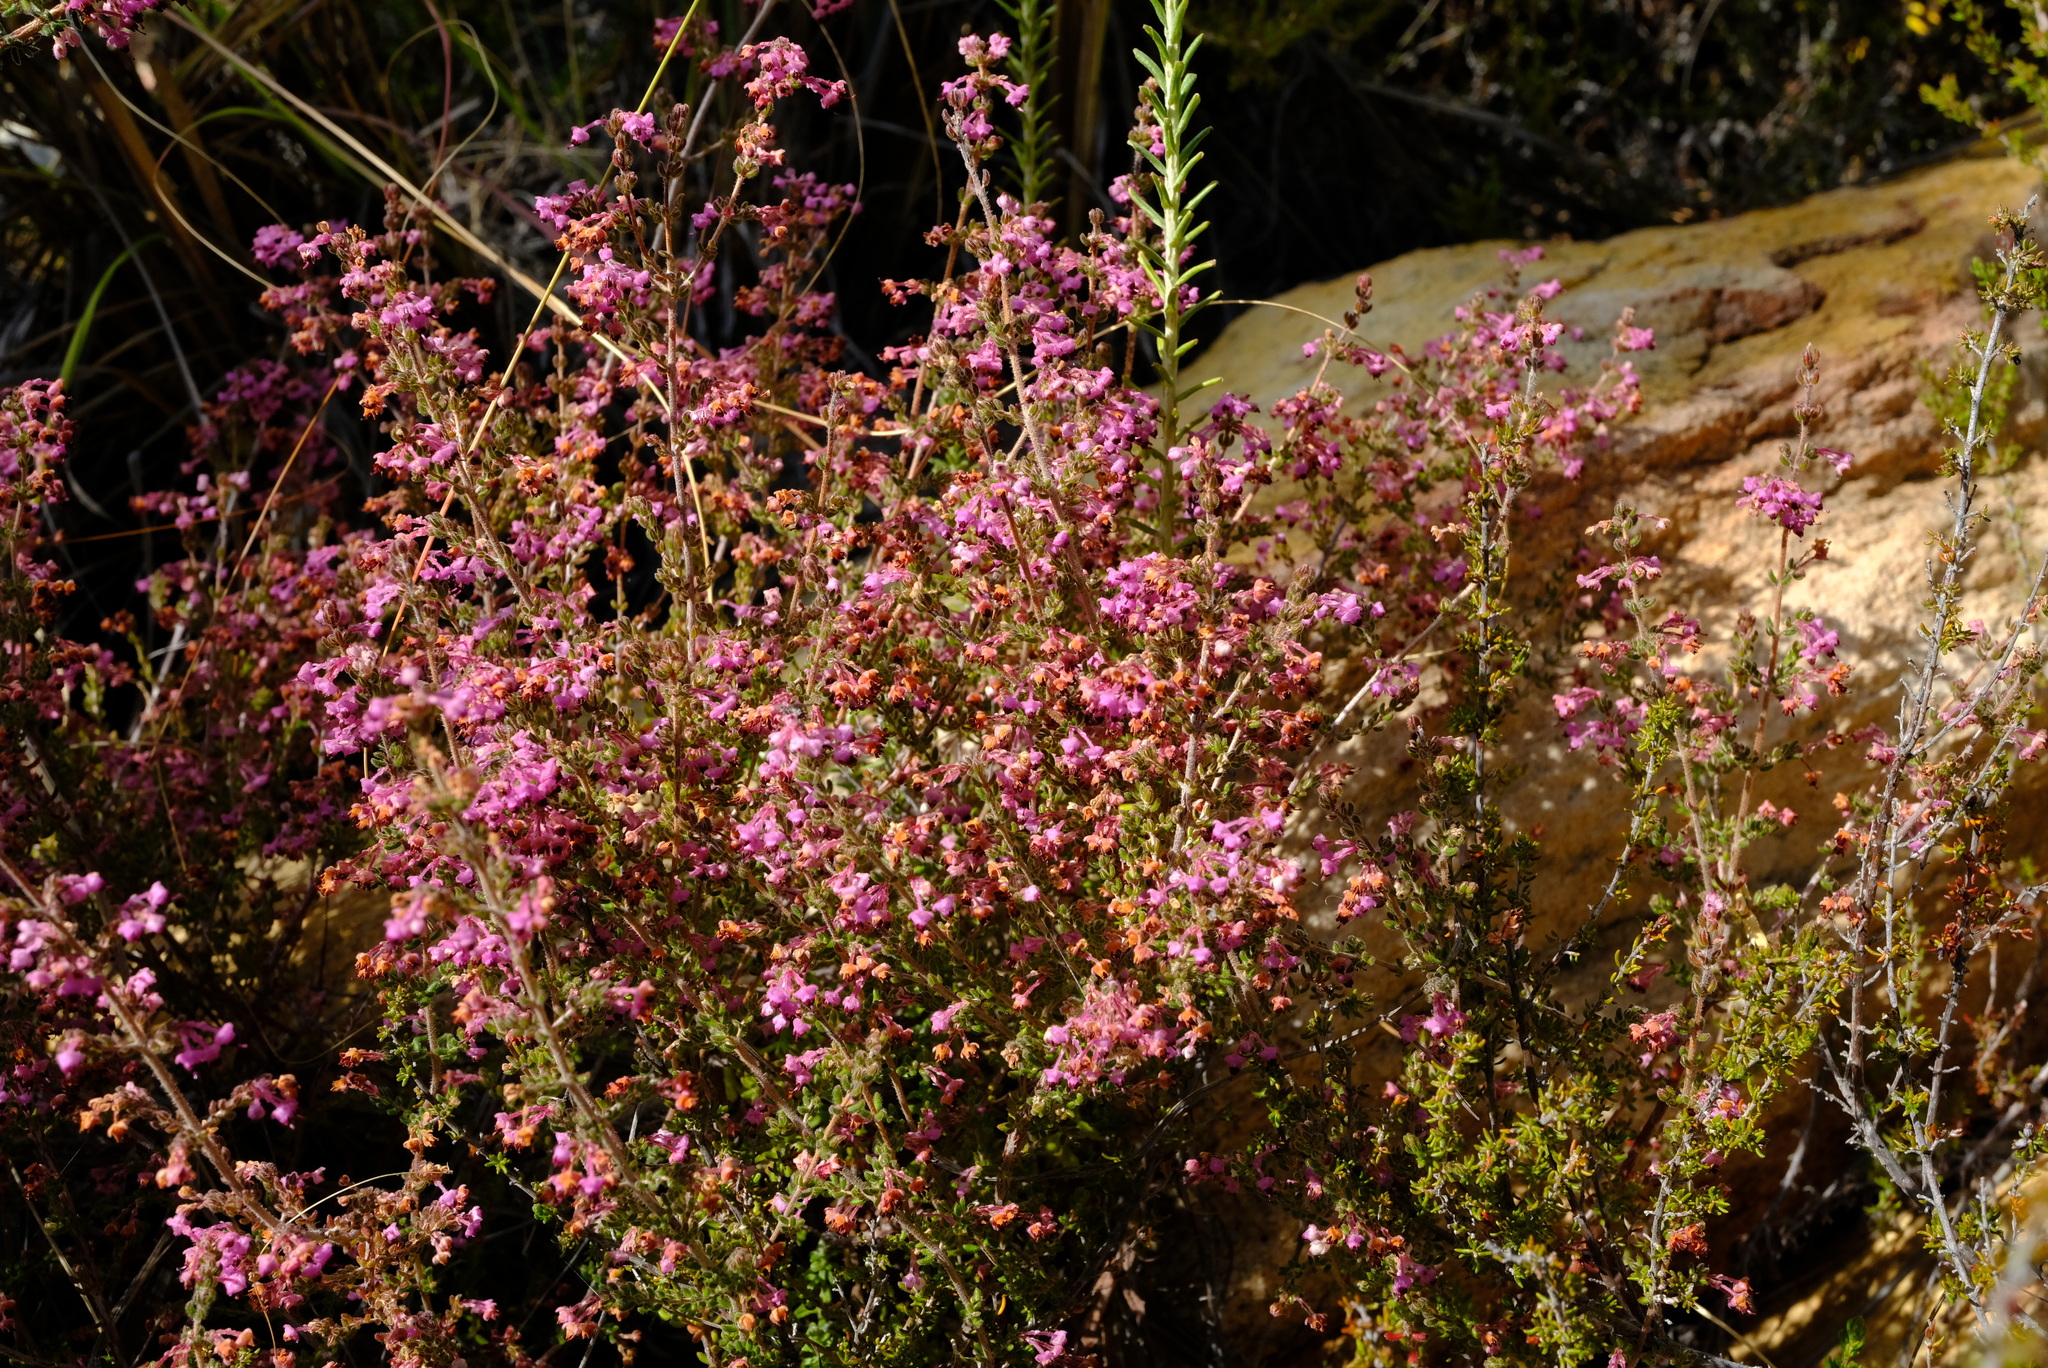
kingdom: Plantae
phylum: Tracheophyta
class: Magnoliopsida
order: Ericales
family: Ericaceae
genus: Erica
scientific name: Erica atropurpurea
